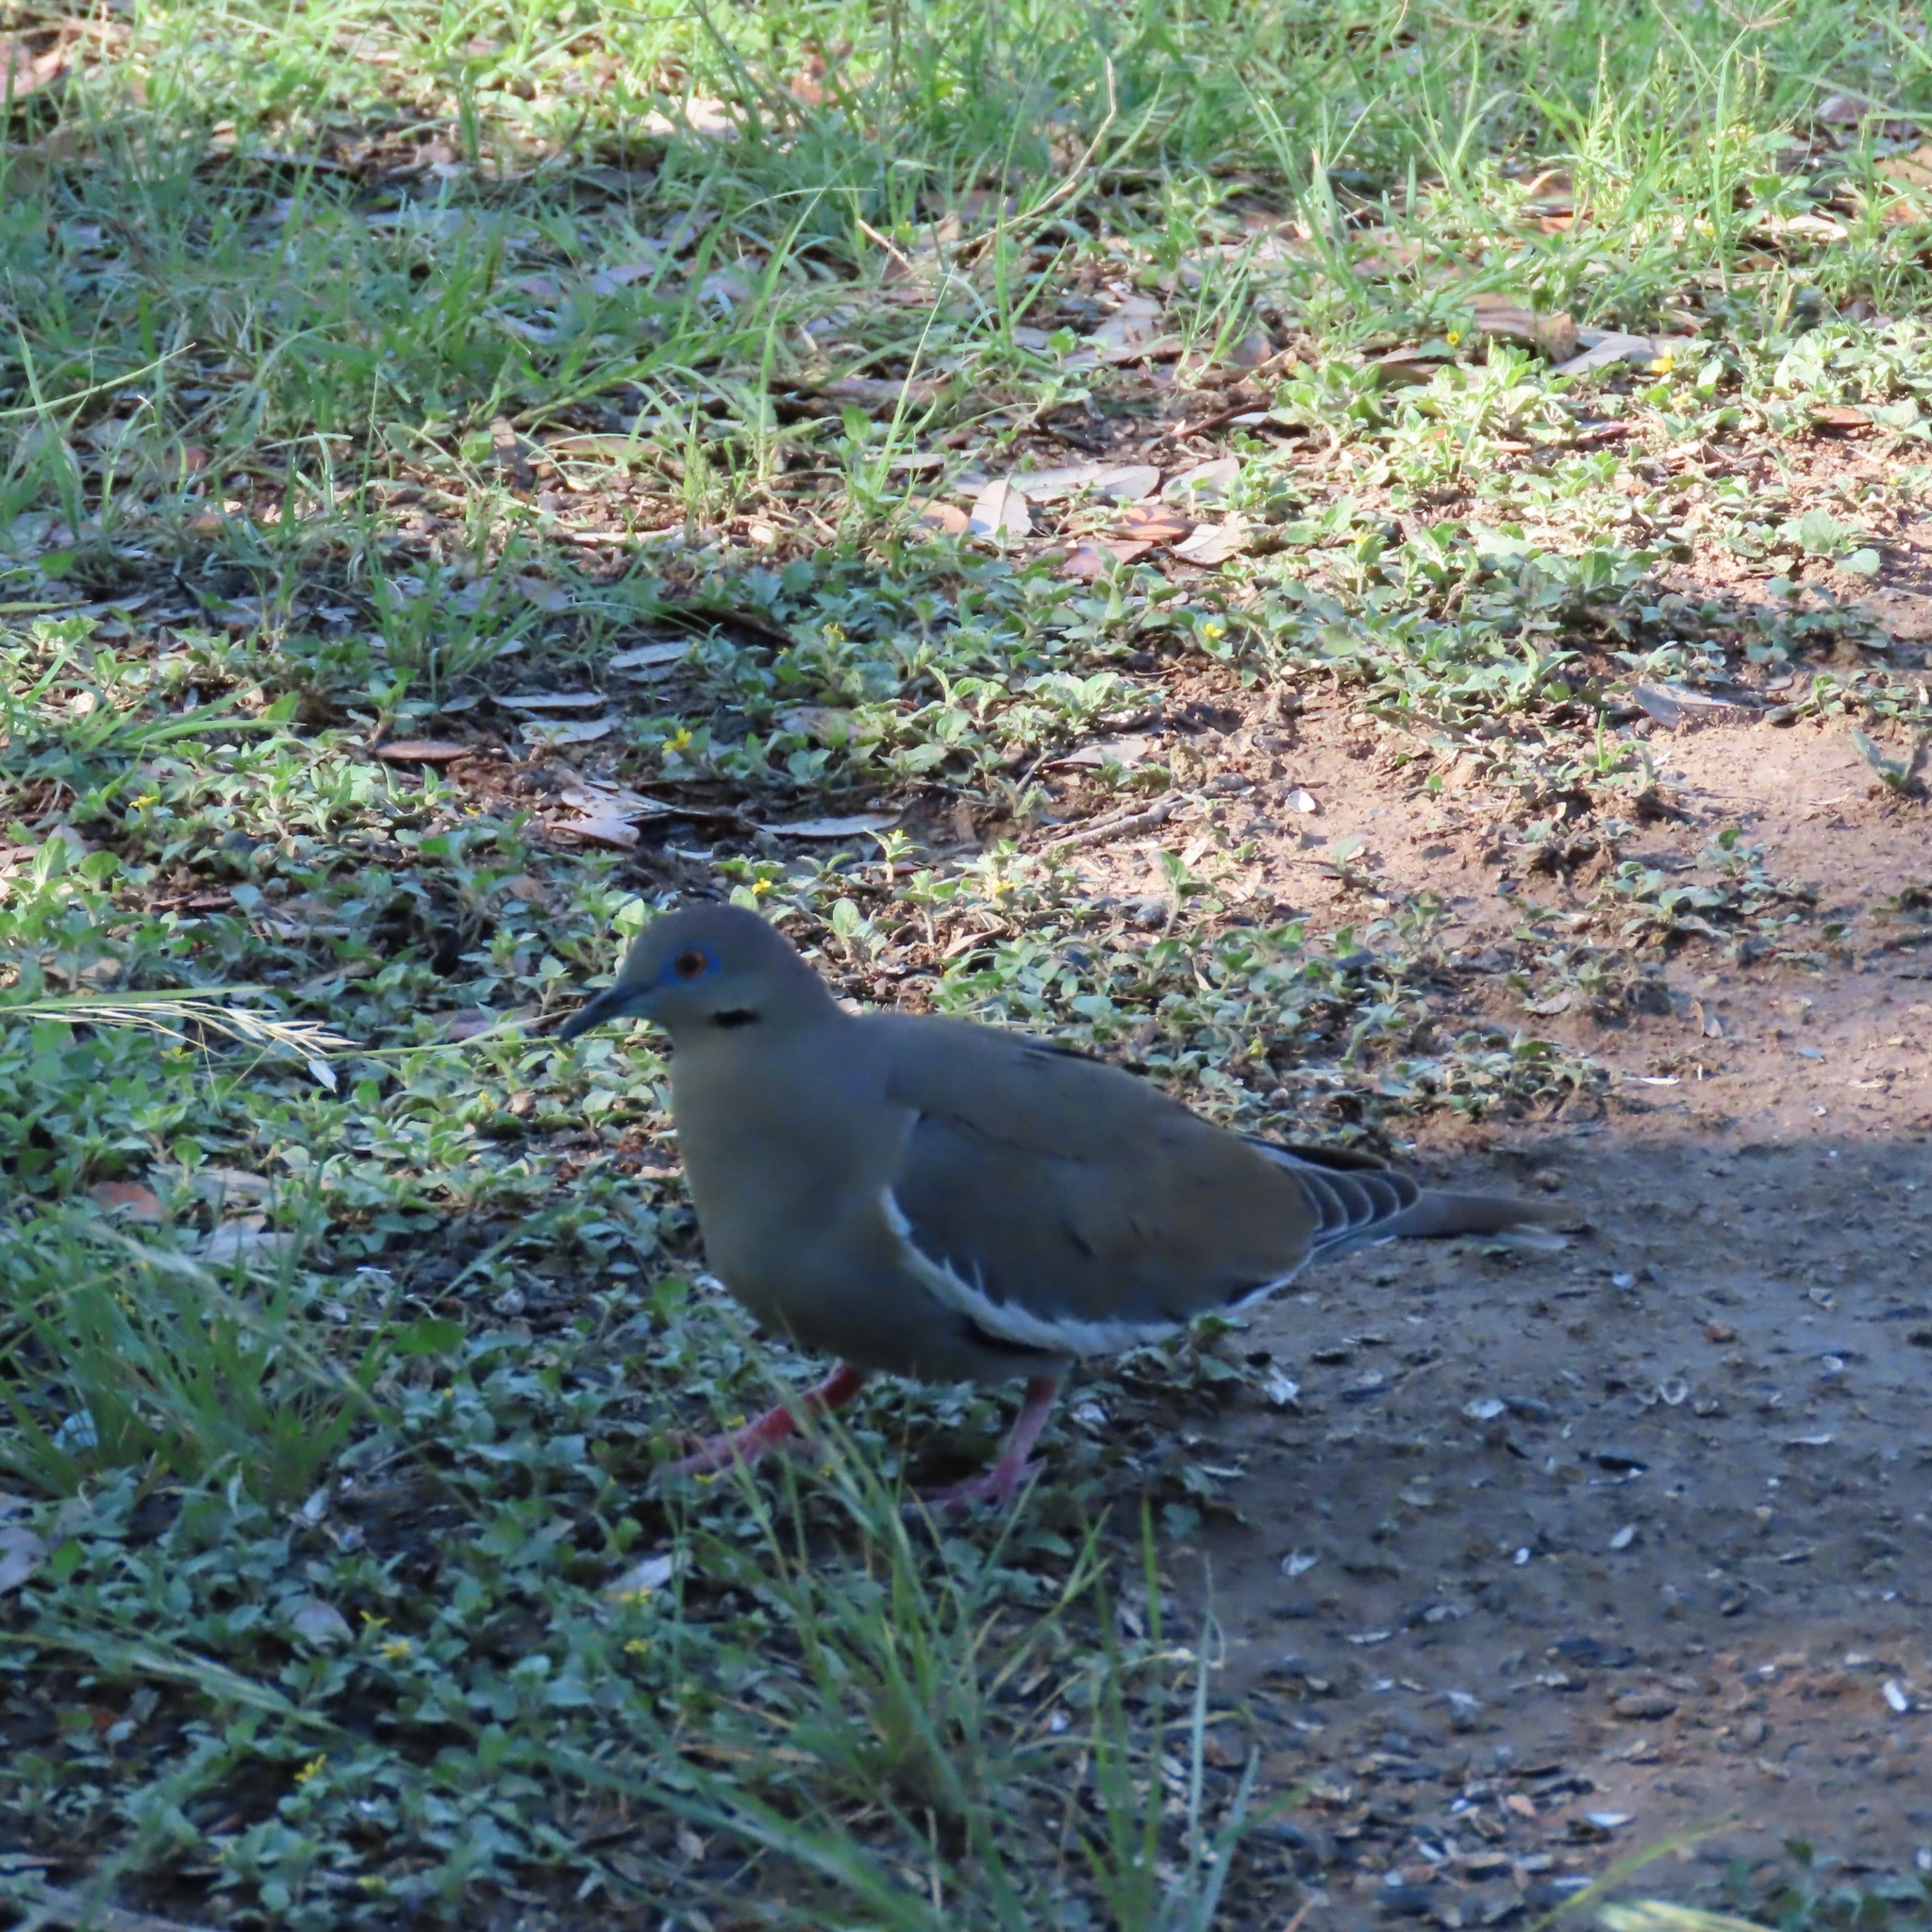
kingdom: Animalia
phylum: Chordata
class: Aves
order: Columbiformes
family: Columbidae
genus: Zenaida
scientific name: Zenaida asiatica
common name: White-winged dove
